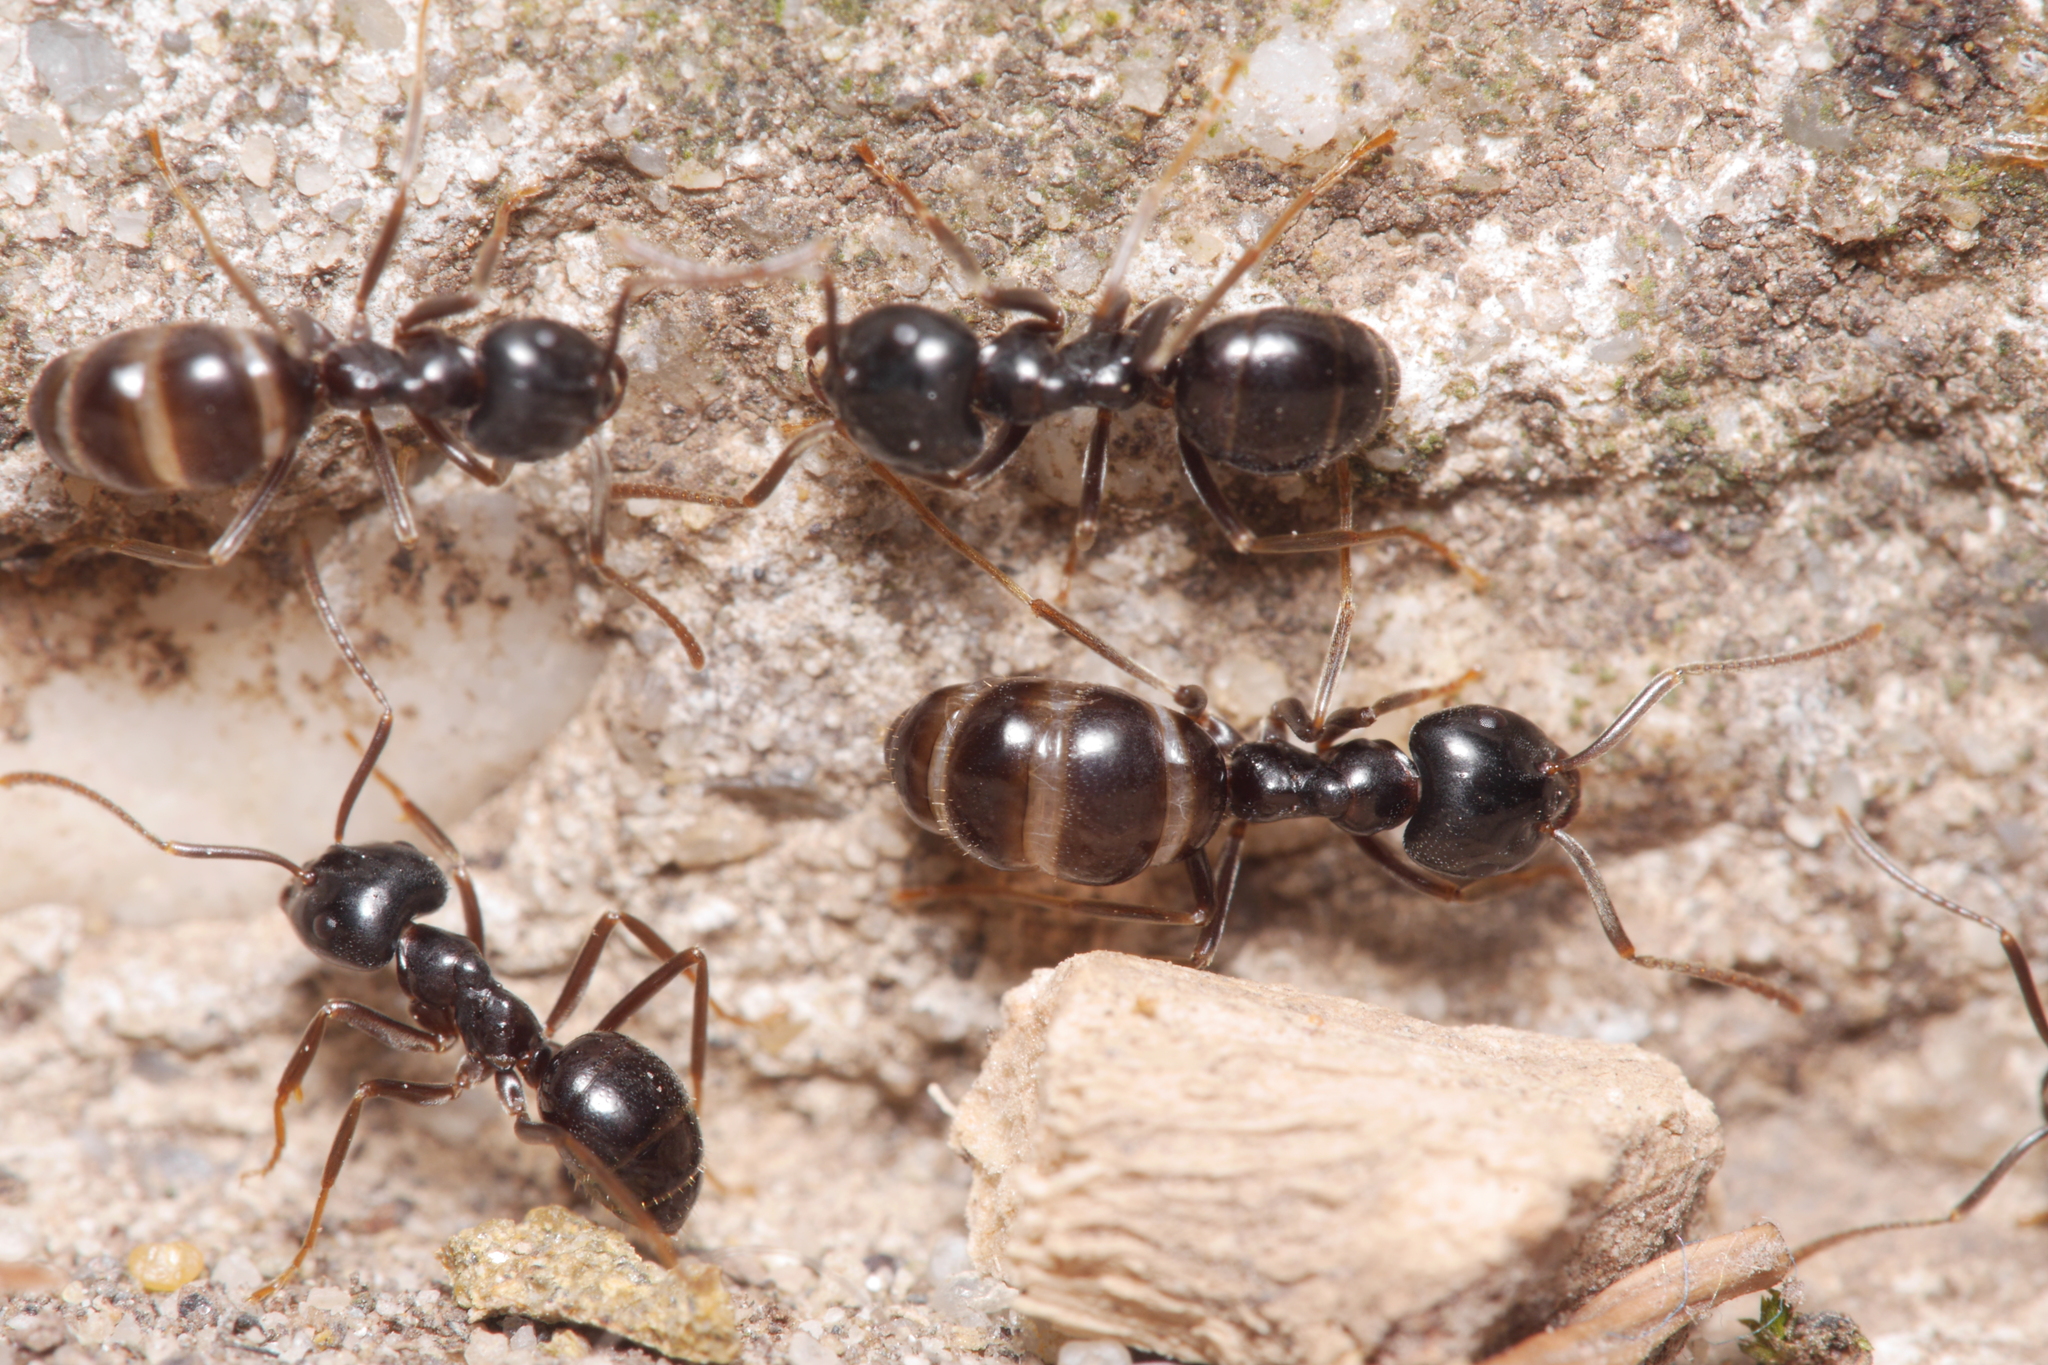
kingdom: Animalia
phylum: Arthropoda
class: Insecta
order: Hymenoptera
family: Formicidae
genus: Lasius
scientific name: Lasius fuliginosus
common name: Jet ant
